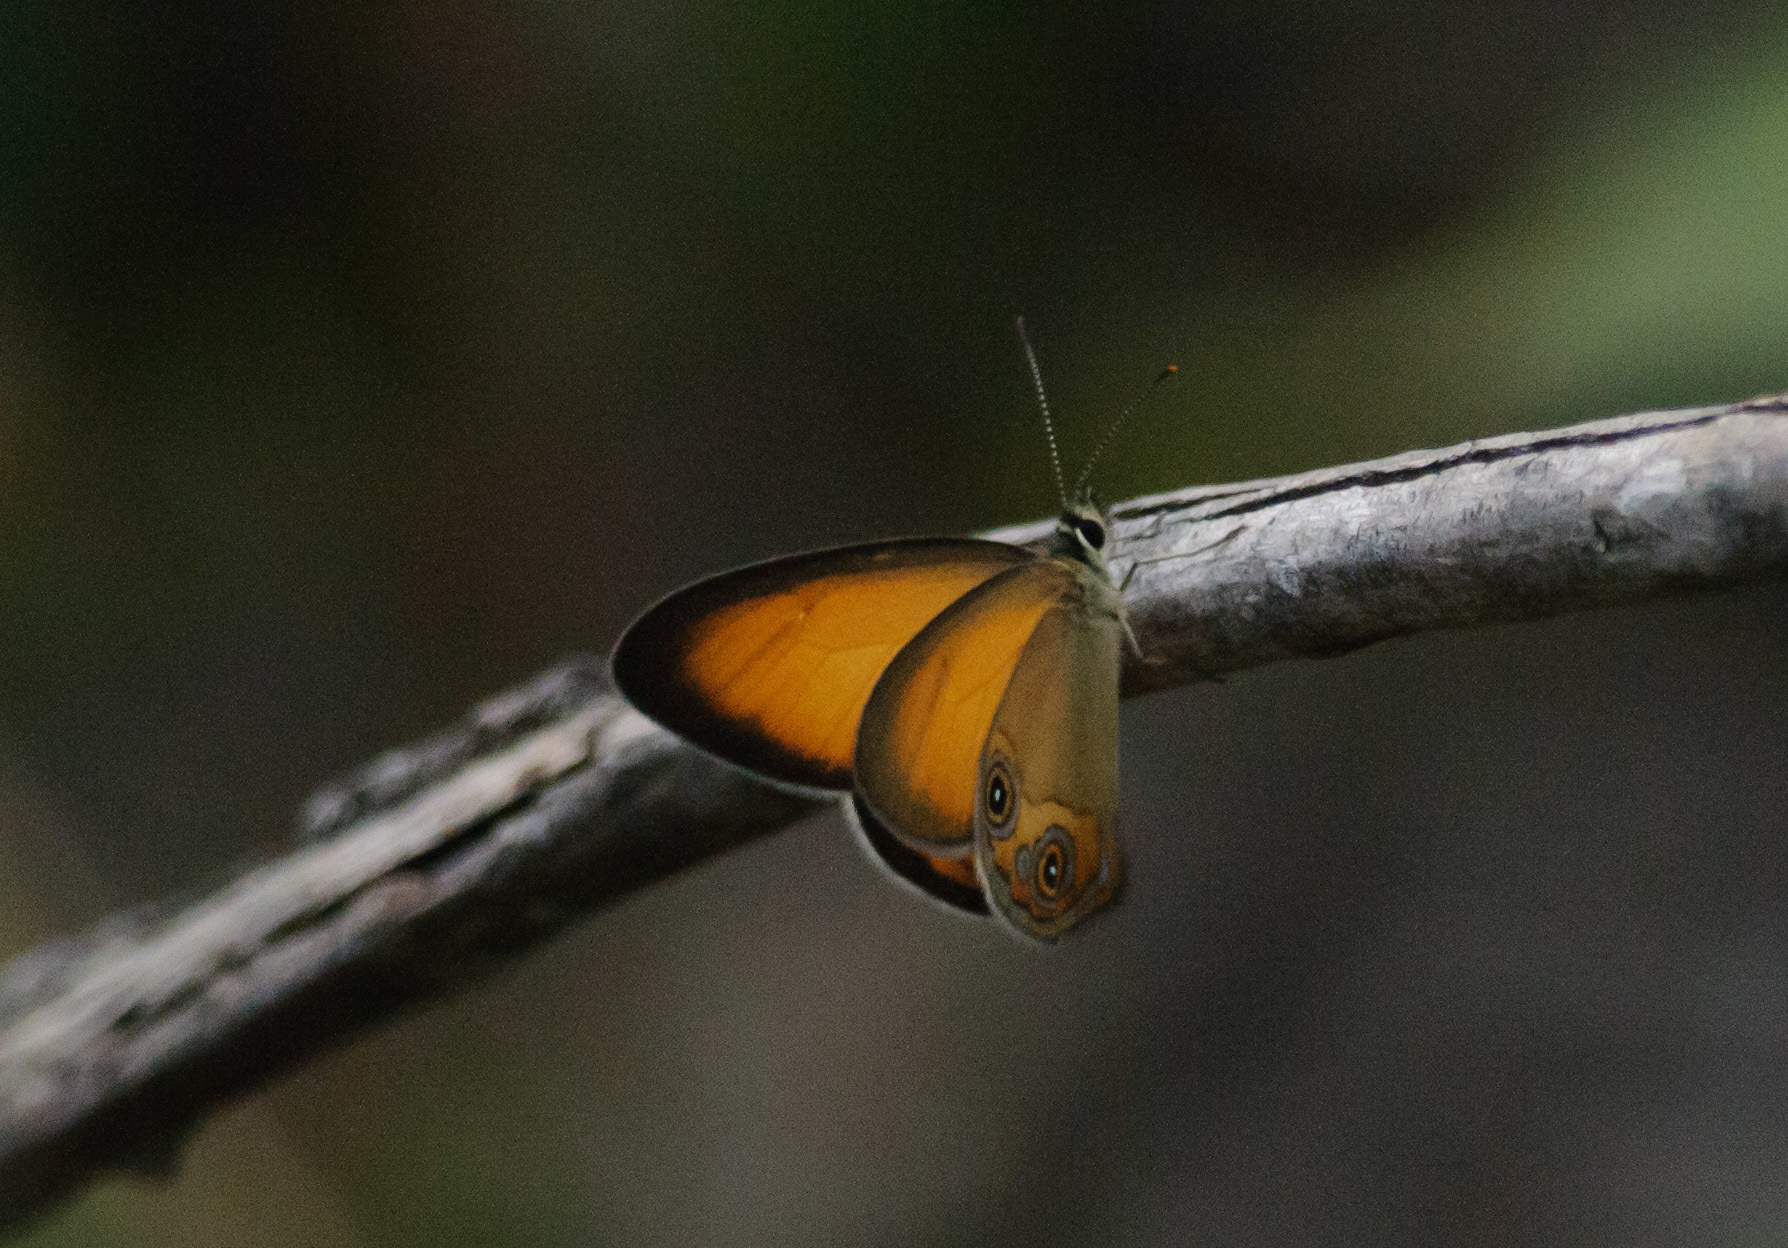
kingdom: Animalia
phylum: Arthropoda
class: Insecta
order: Lepidoptera
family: Nymphalidae
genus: Hypocysta
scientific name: Hypocysta adiante
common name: Orange ringlet
